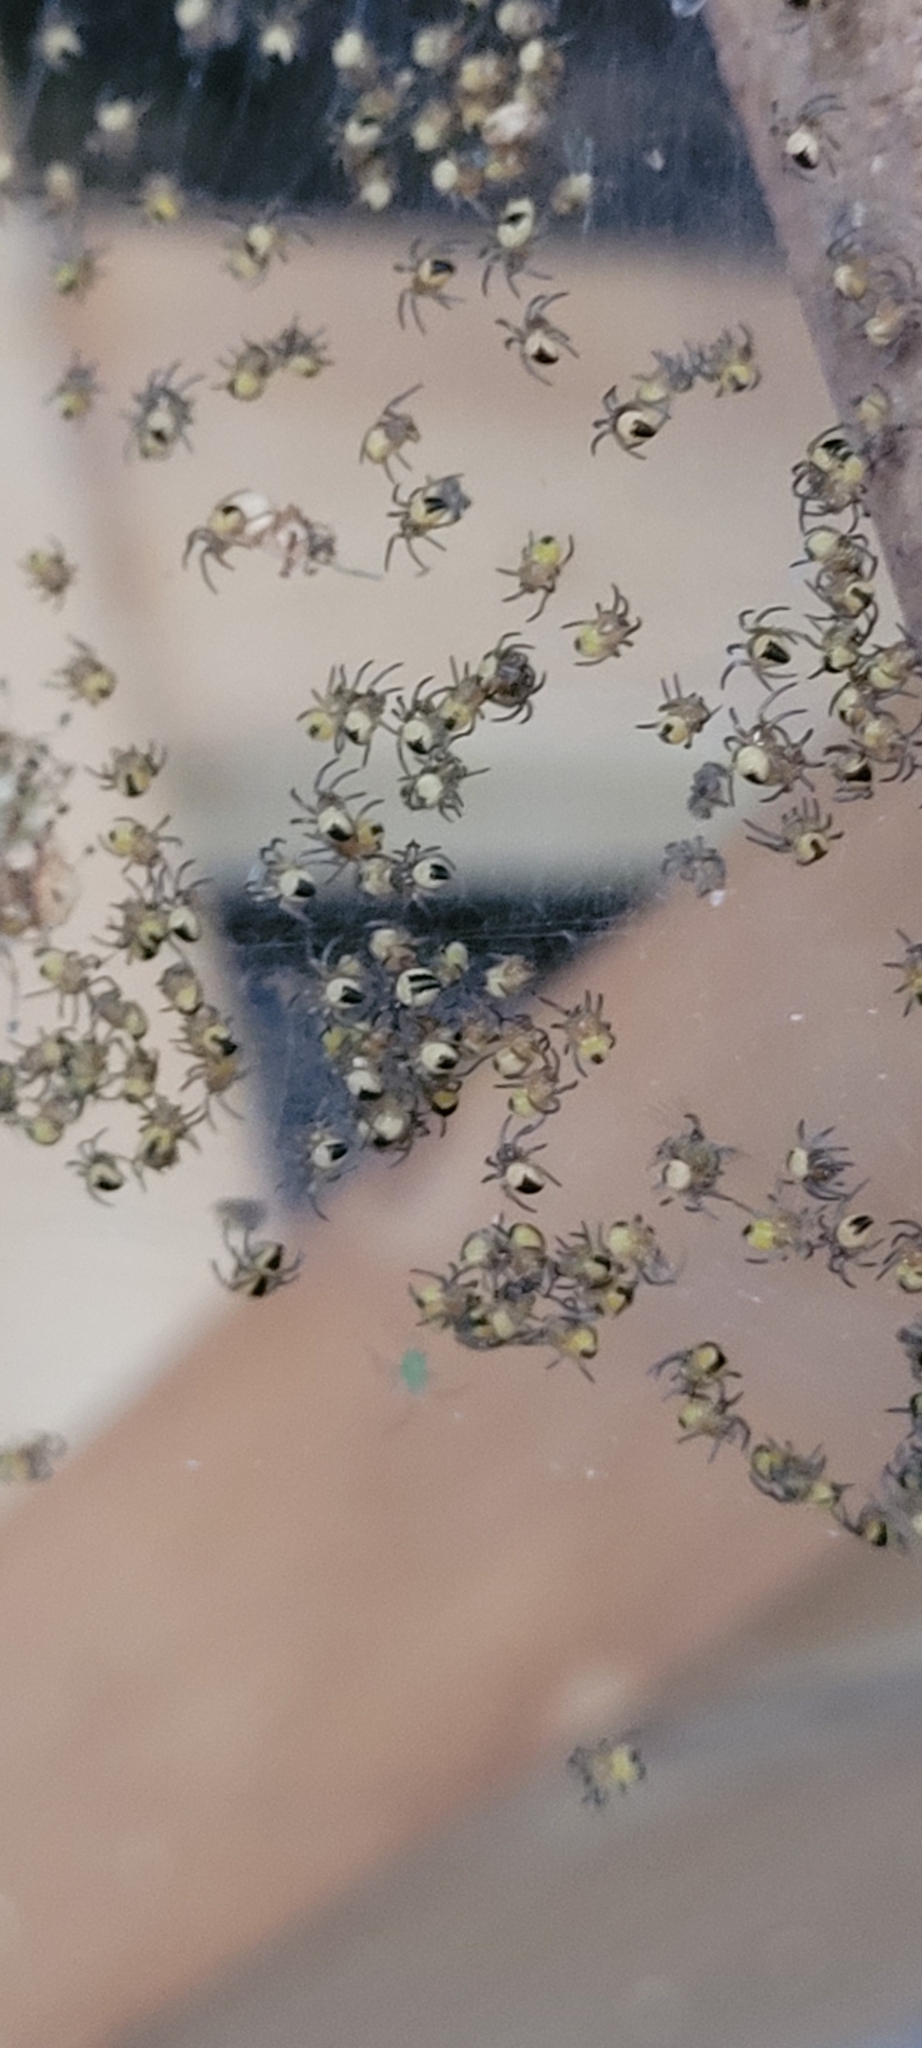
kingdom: Animalia
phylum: Arthropoda
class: Arachnida
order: Araneae
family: Araneidae
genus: Araneus
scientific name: Araneus diadematus
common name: Cross orbweaver
